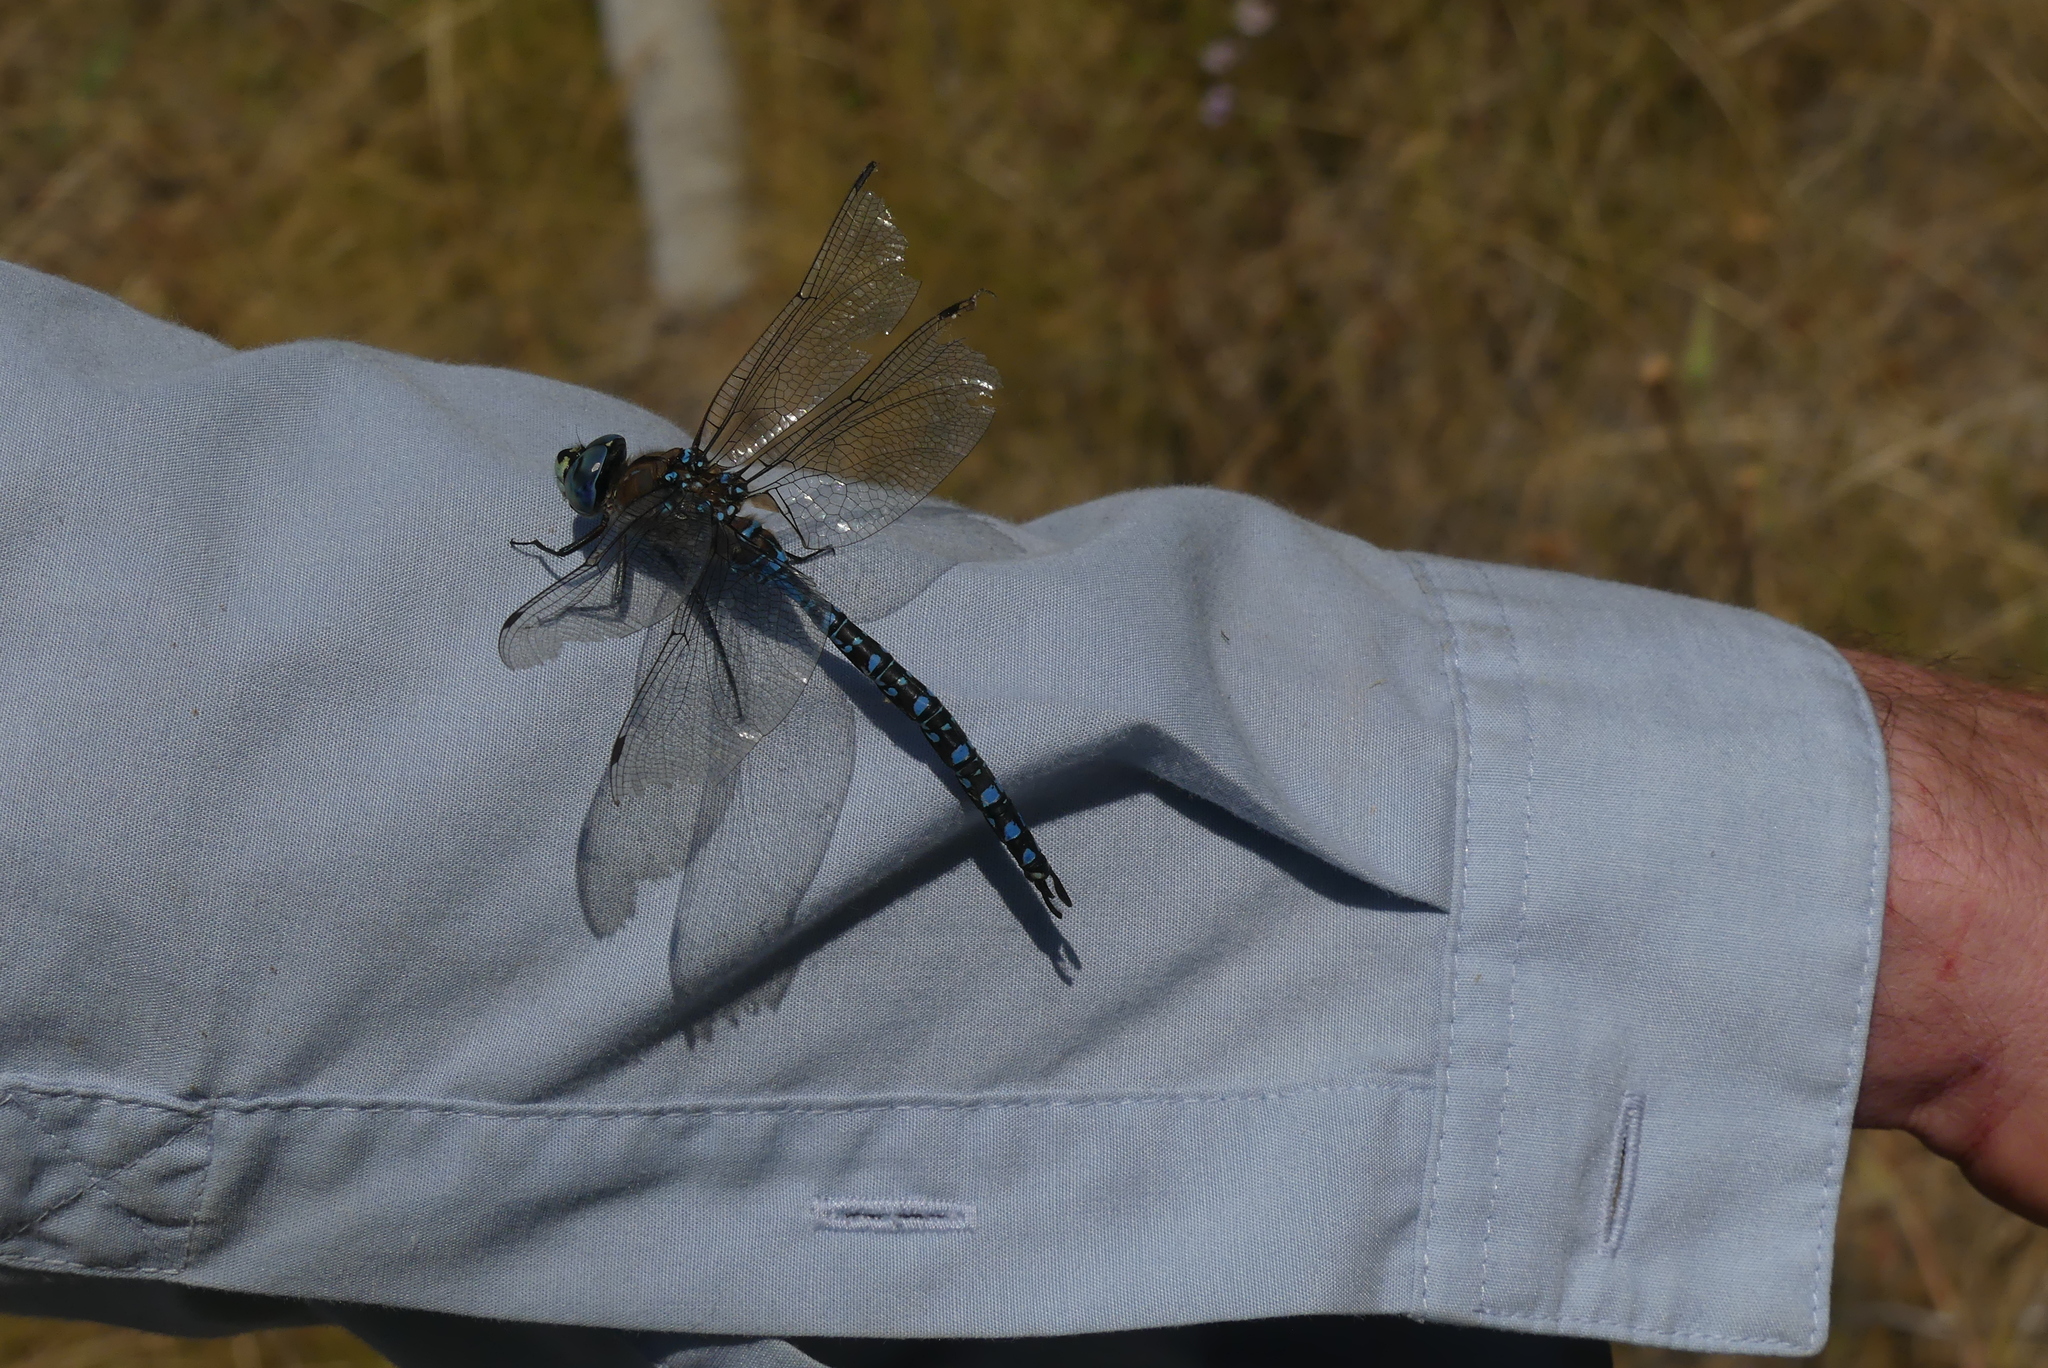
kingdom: Animalia
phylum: Arthropoda
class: Insecta
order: Odonata
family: Aeshnidae
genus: Aeshna
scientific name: Aeshna interrupta
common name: Variable darner
